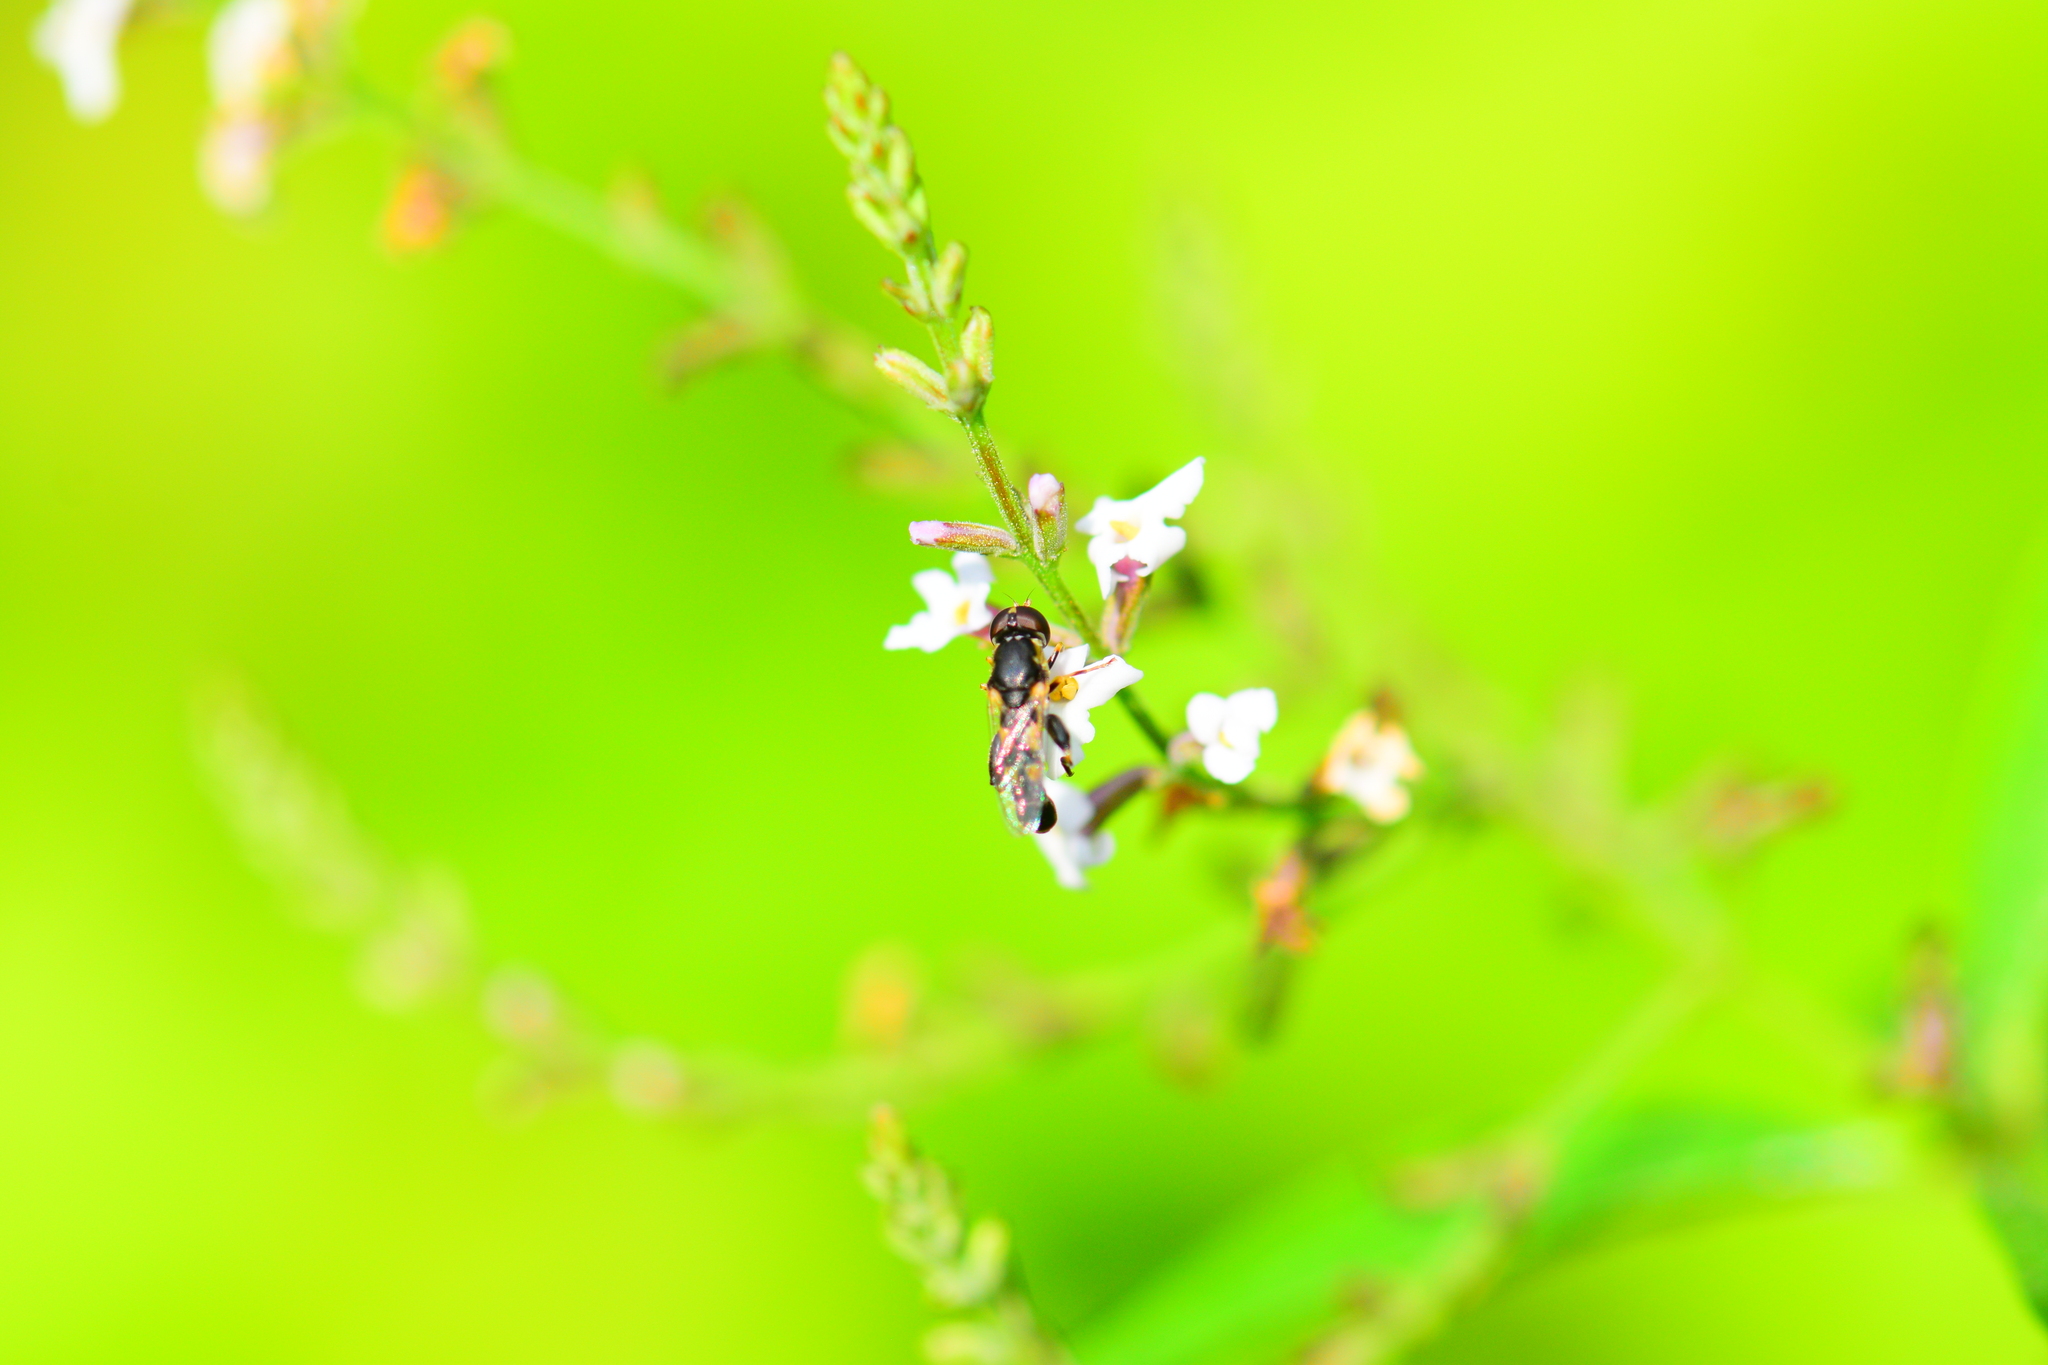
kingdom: Animalia
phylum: Arthropoda
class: Insecta
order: Diptera
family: Syrphidae
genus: Syritta
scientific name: Syritta pipiens
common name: Hover fly
